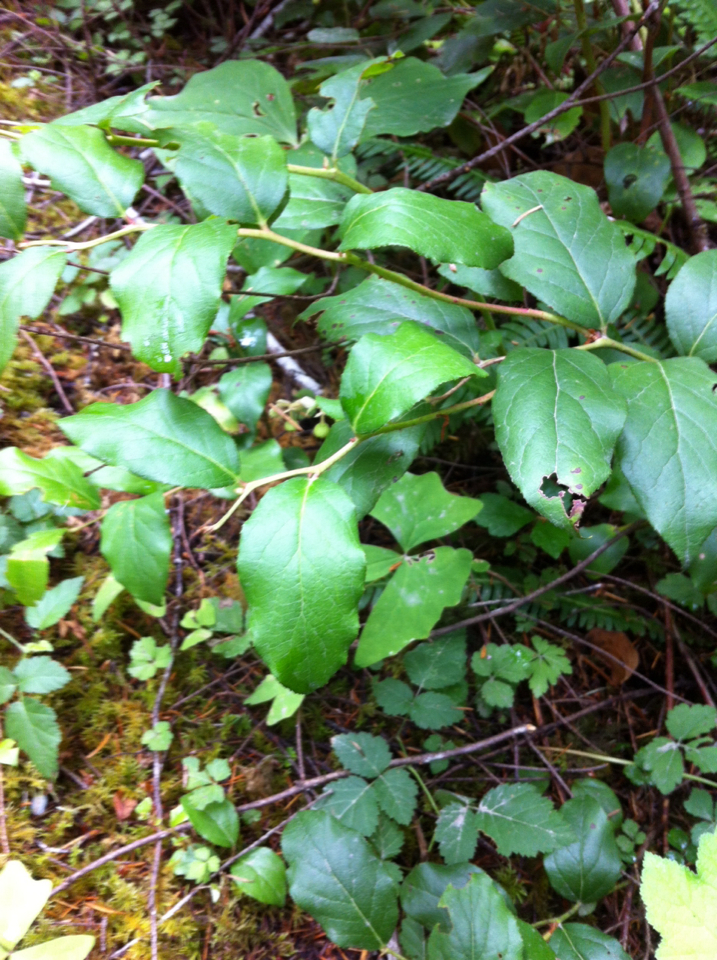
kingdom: Plantae
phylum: Tracheophyta
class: Magnoliopsida
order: Ericales
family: Ericaceae
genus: Gaultheria
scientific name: Gaultheria shallon
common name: Shallon
